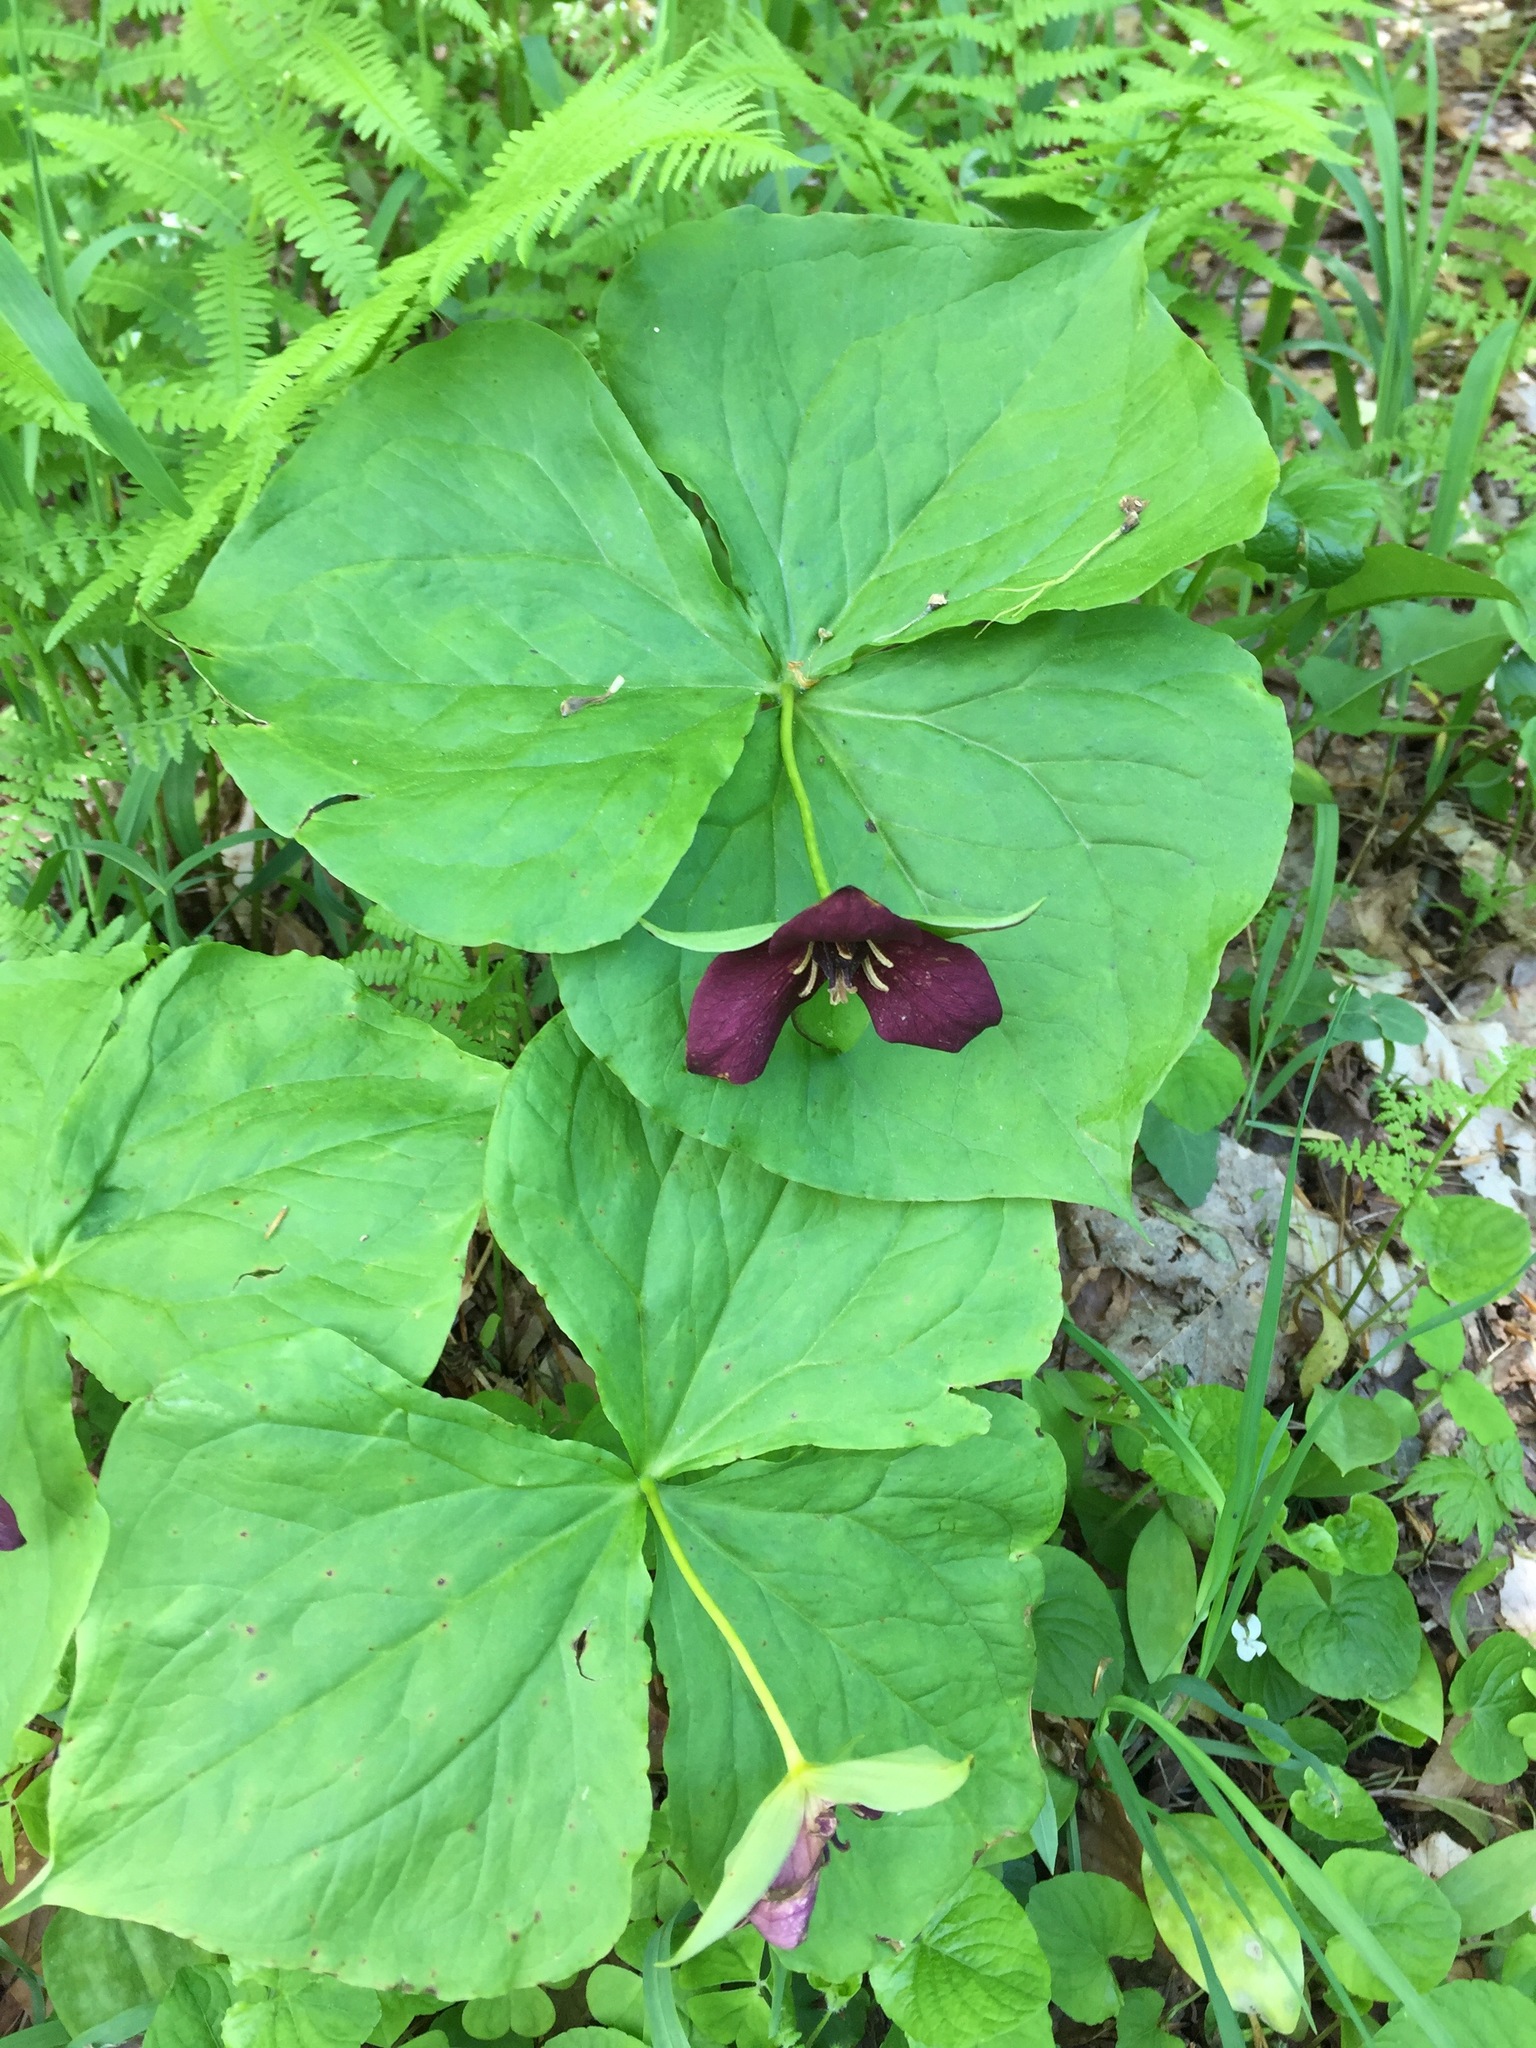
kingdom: Plantae
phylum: Tracheophyta
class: Liliopsida
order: Liliales
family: Melanthiaceae
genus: Trillium
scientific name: Trillium erectum
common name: Purple trillium
